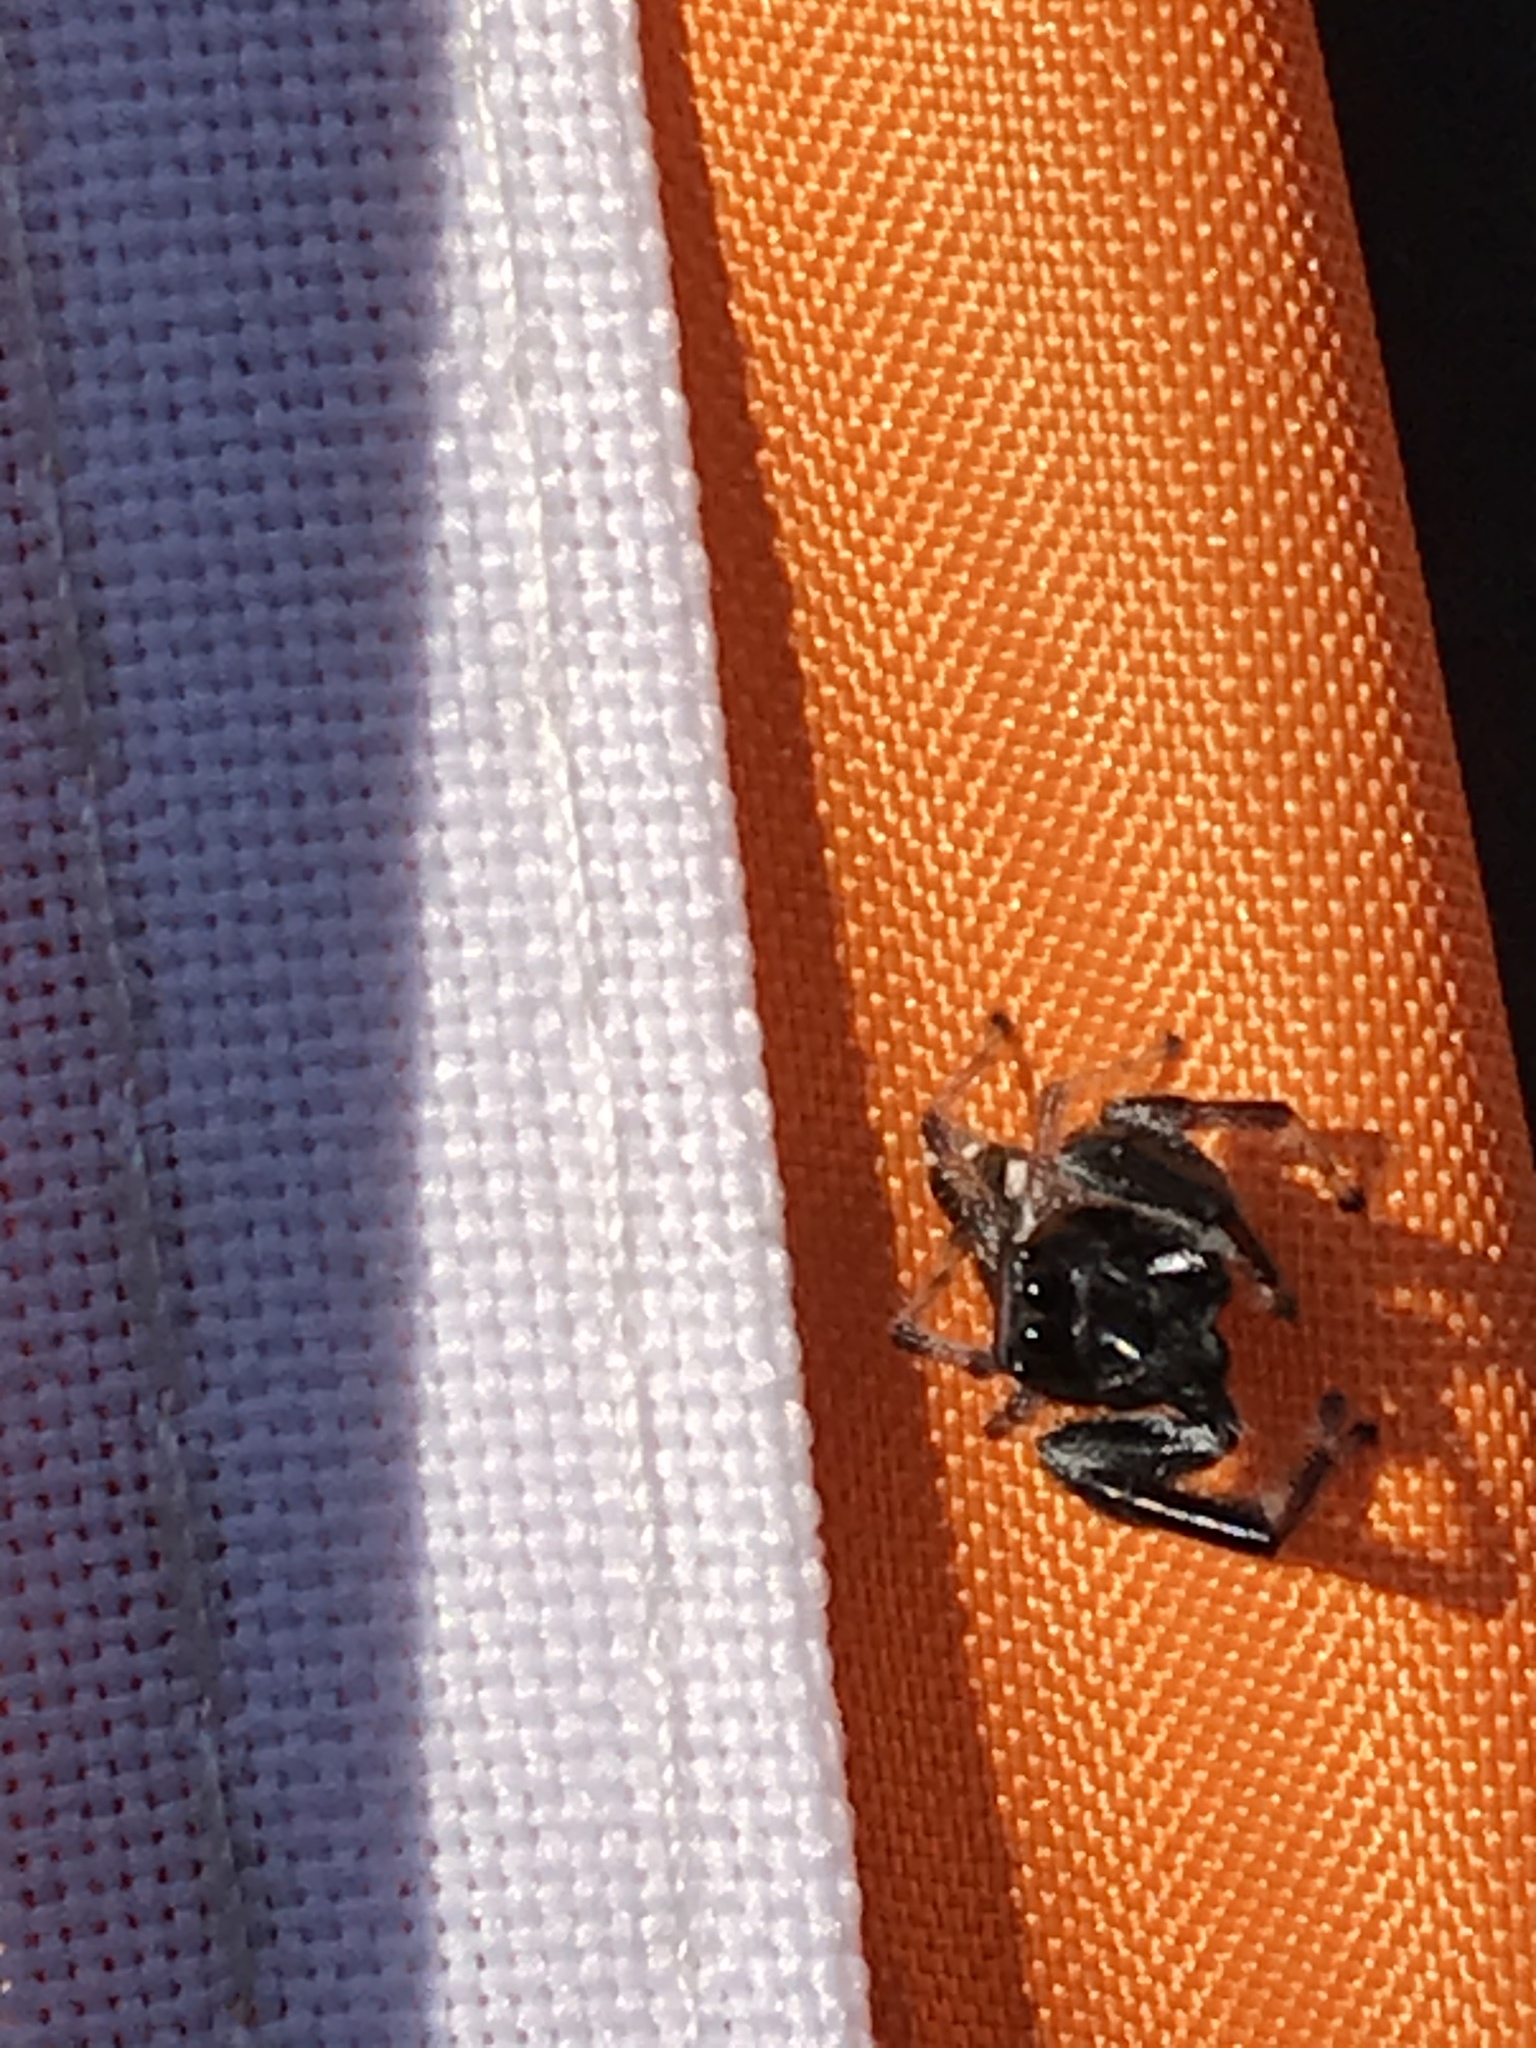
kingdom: Animalia
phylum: Arthropoda
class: Arachnida
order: Araneae
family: Salticidae
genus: Paraphidippus
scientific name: Paraphidippus aurantius
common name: Jumping spiders
